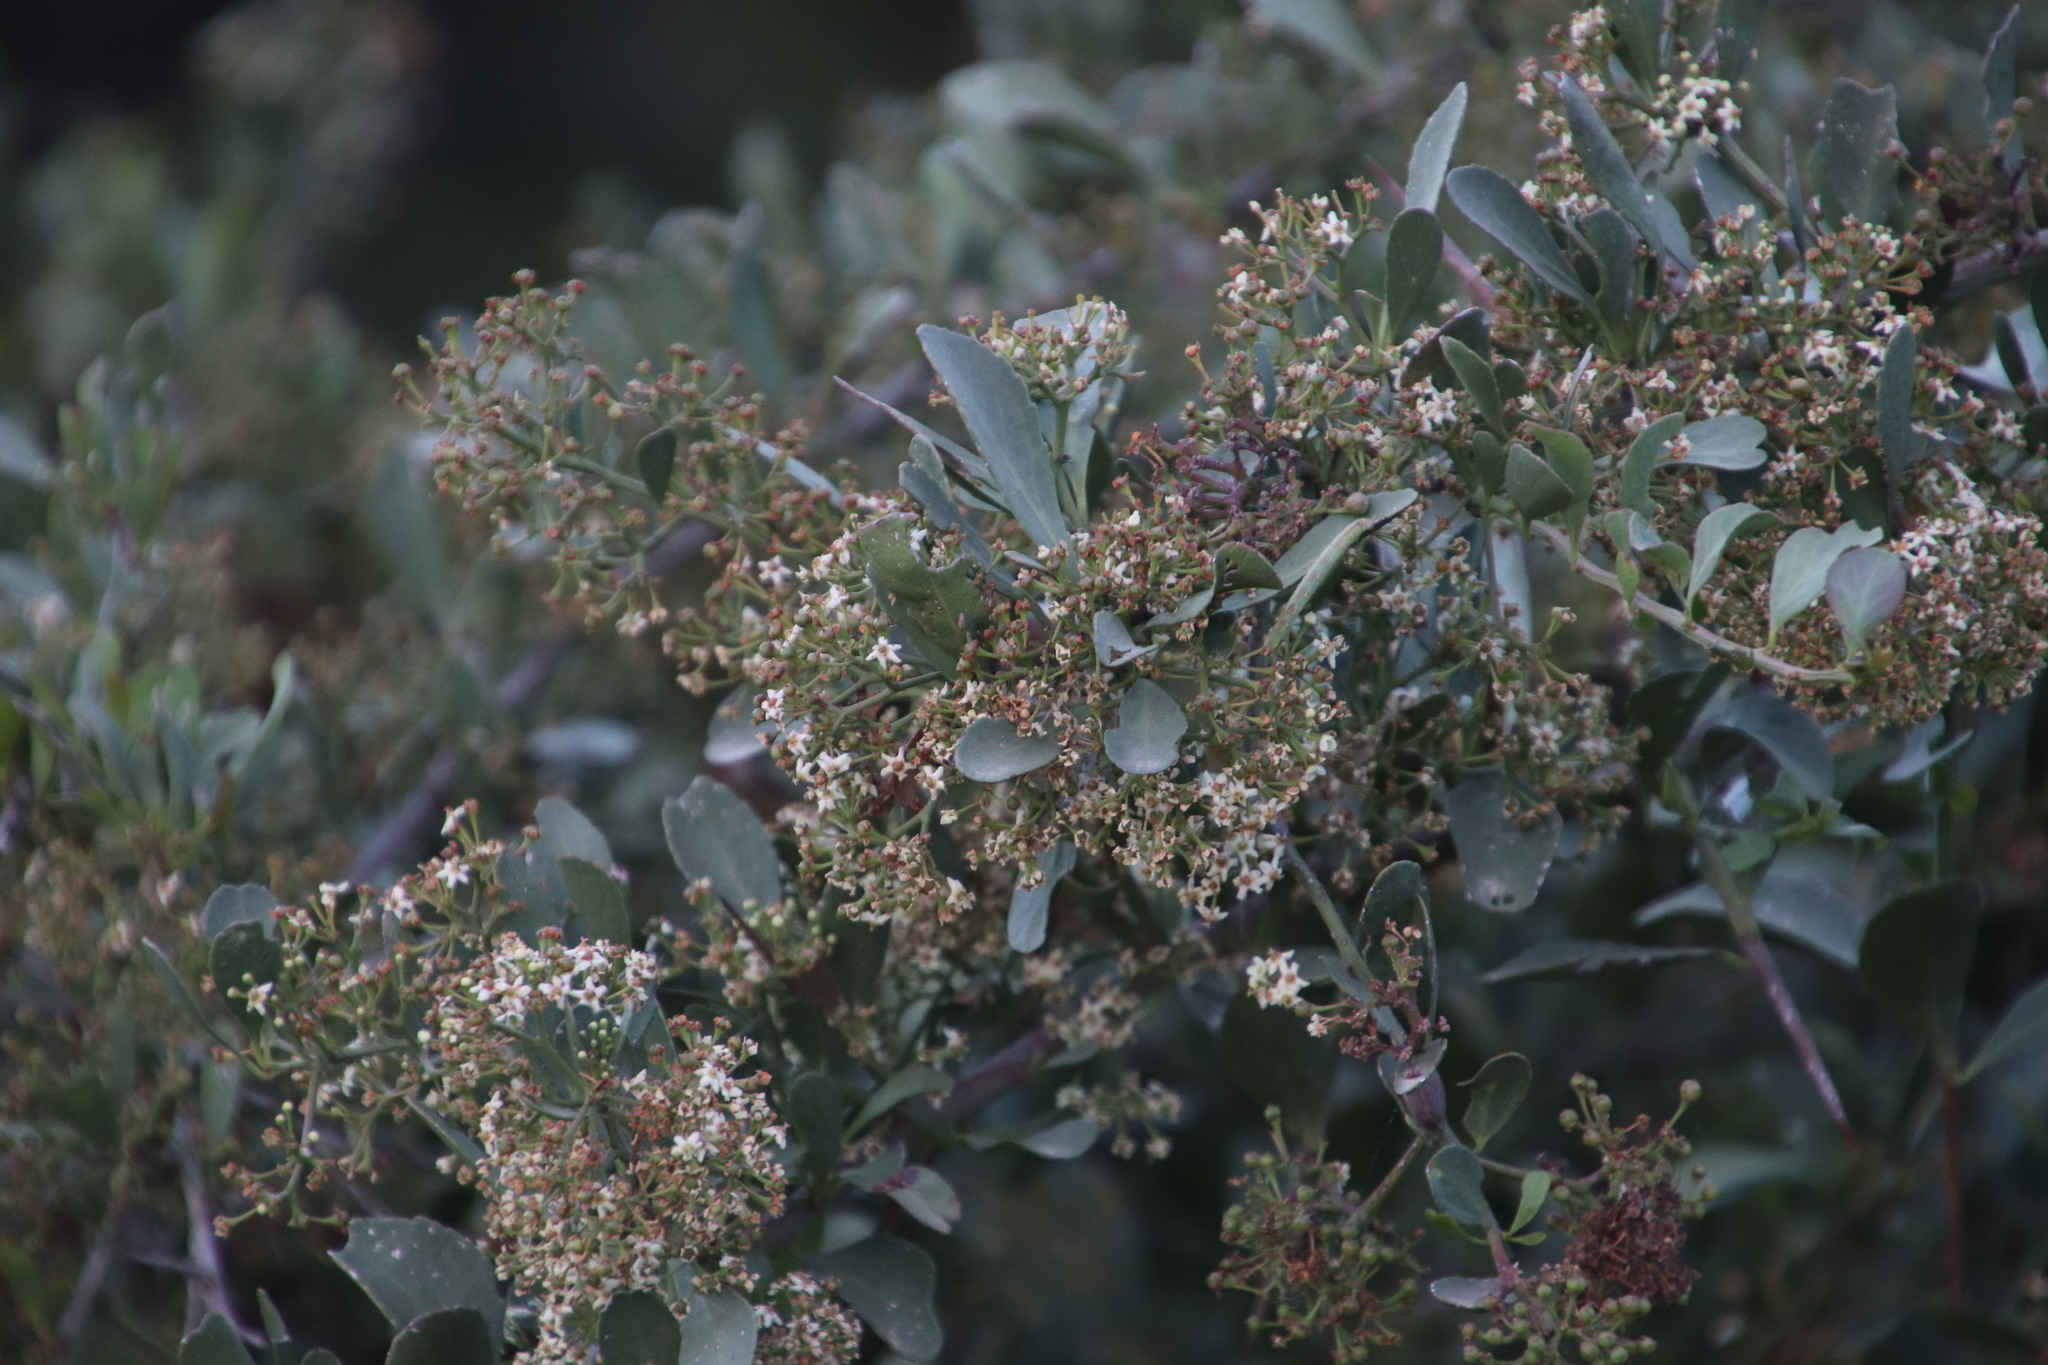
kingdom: Plantae
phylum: Tracheophyta
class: Magnoliopsida
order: Celastrales
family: Celastraceae
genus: Gymnosporia
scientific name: Gymnosporia buxifolia
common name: Common spike-thorn
